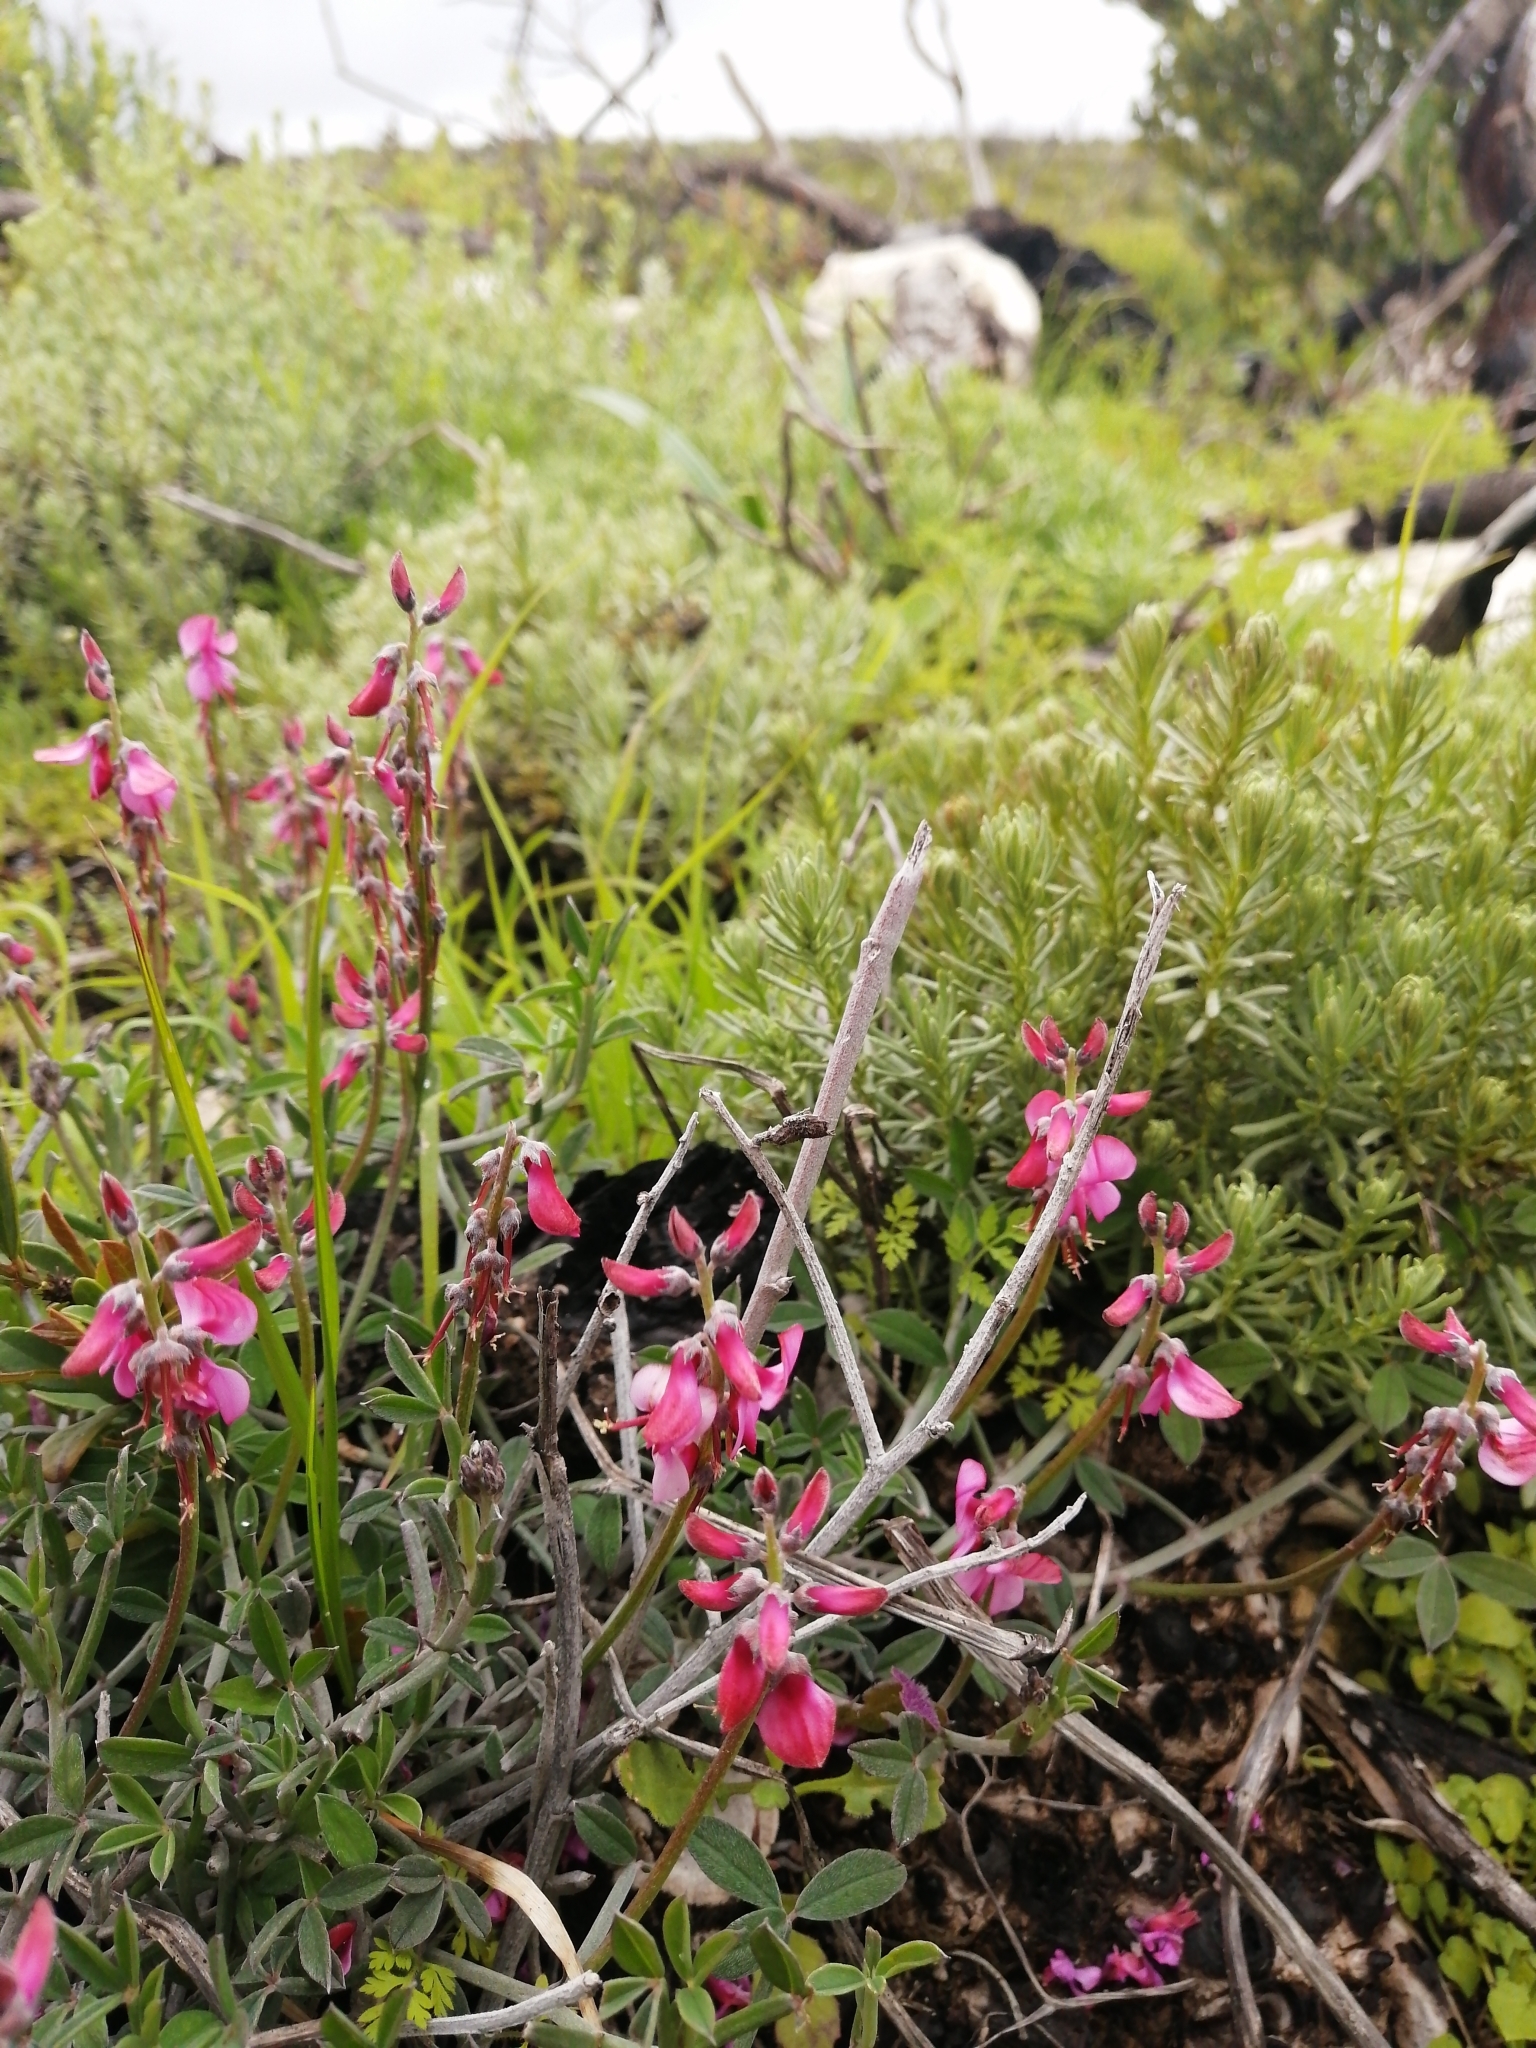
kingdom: Plantae
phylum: Tracheophyta
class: Magnoliopsida
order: Fabales
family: Fabaceae
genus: Indigofera
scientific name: Indigofera
